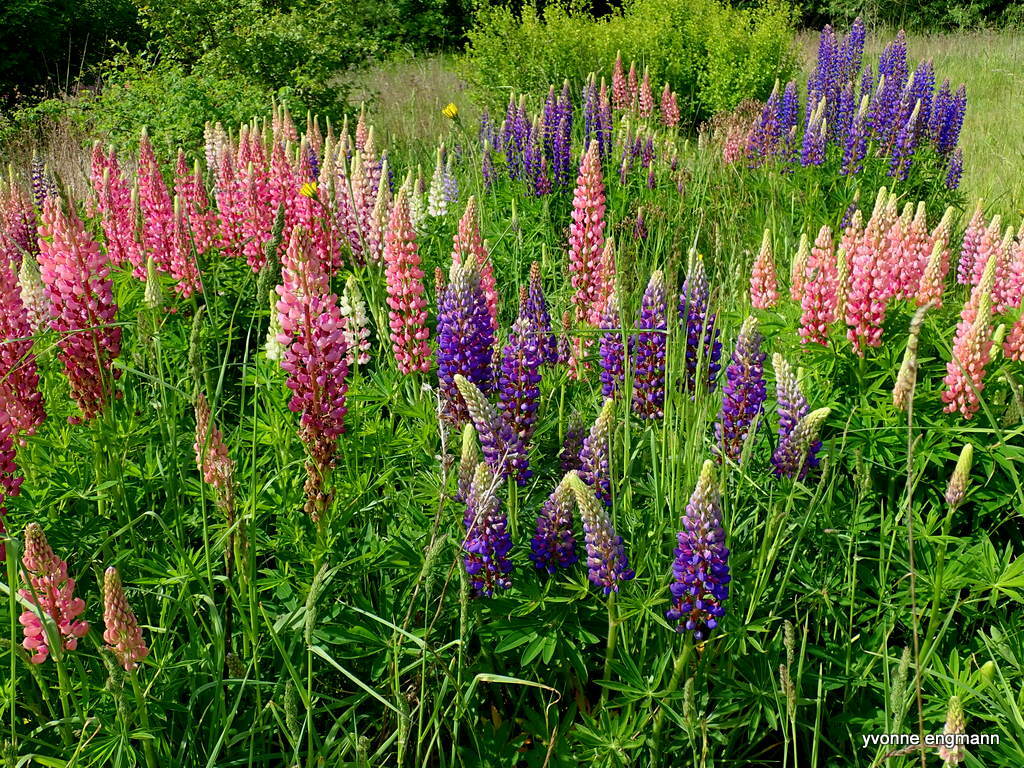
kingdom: Plantae
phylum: Tracheophyta
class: Magnoliopsida
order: Fabales
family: Fabaceae
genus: Lupinus
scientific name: Lupinus regalis
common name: Russell lupin
